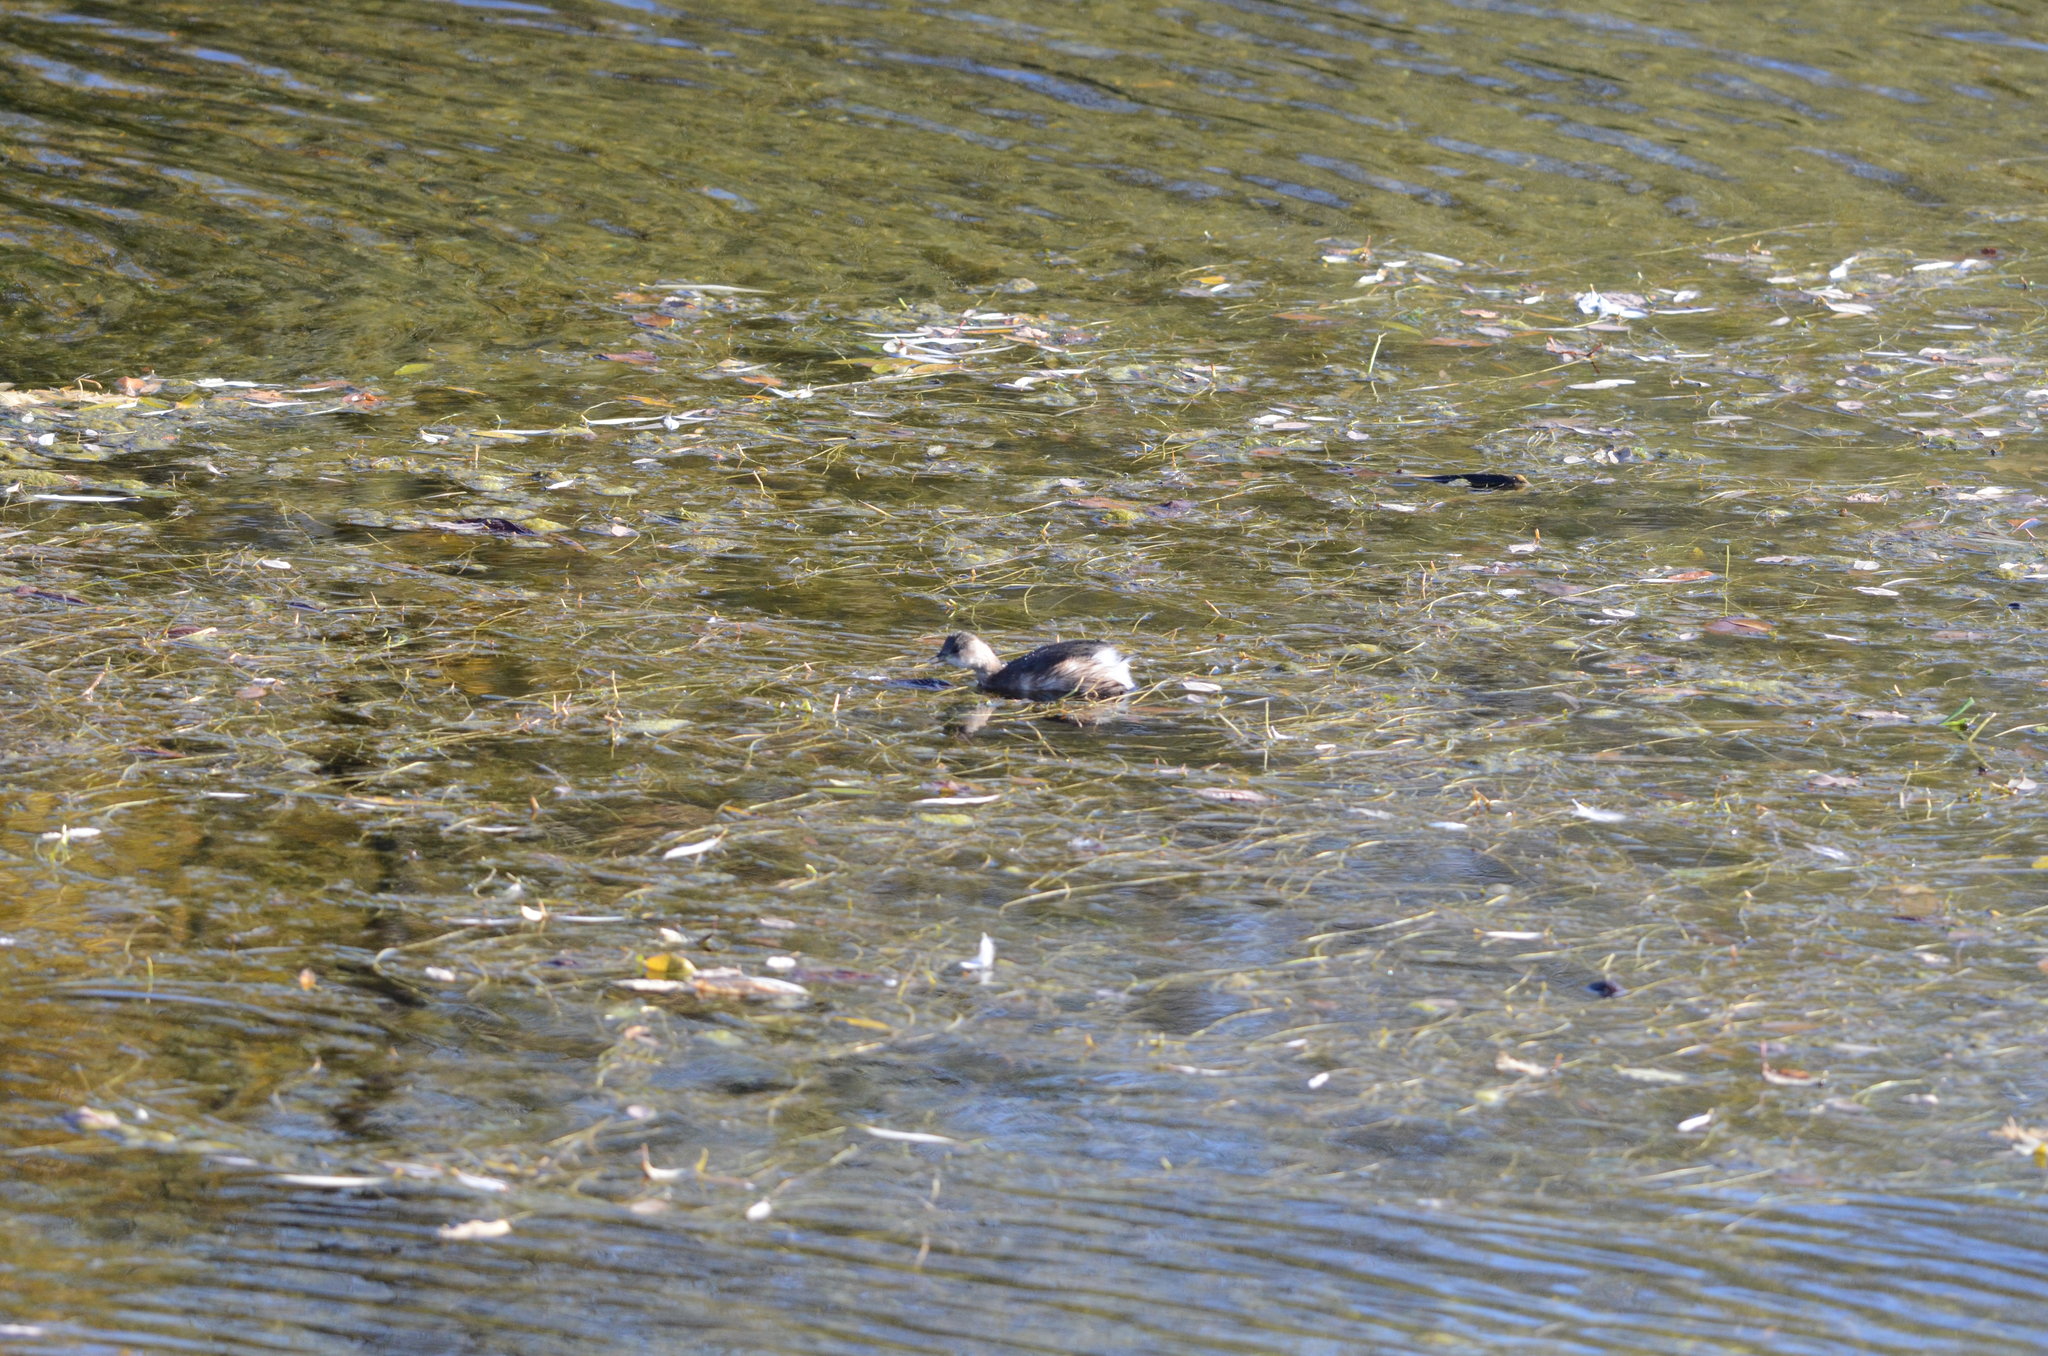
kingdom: Animalia
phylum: Chordata
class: Aves
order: Podicipediformes
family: Podicipedidae
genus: Tachybaptus
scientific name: Tachybaptus ruficollis
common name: Little grebe
